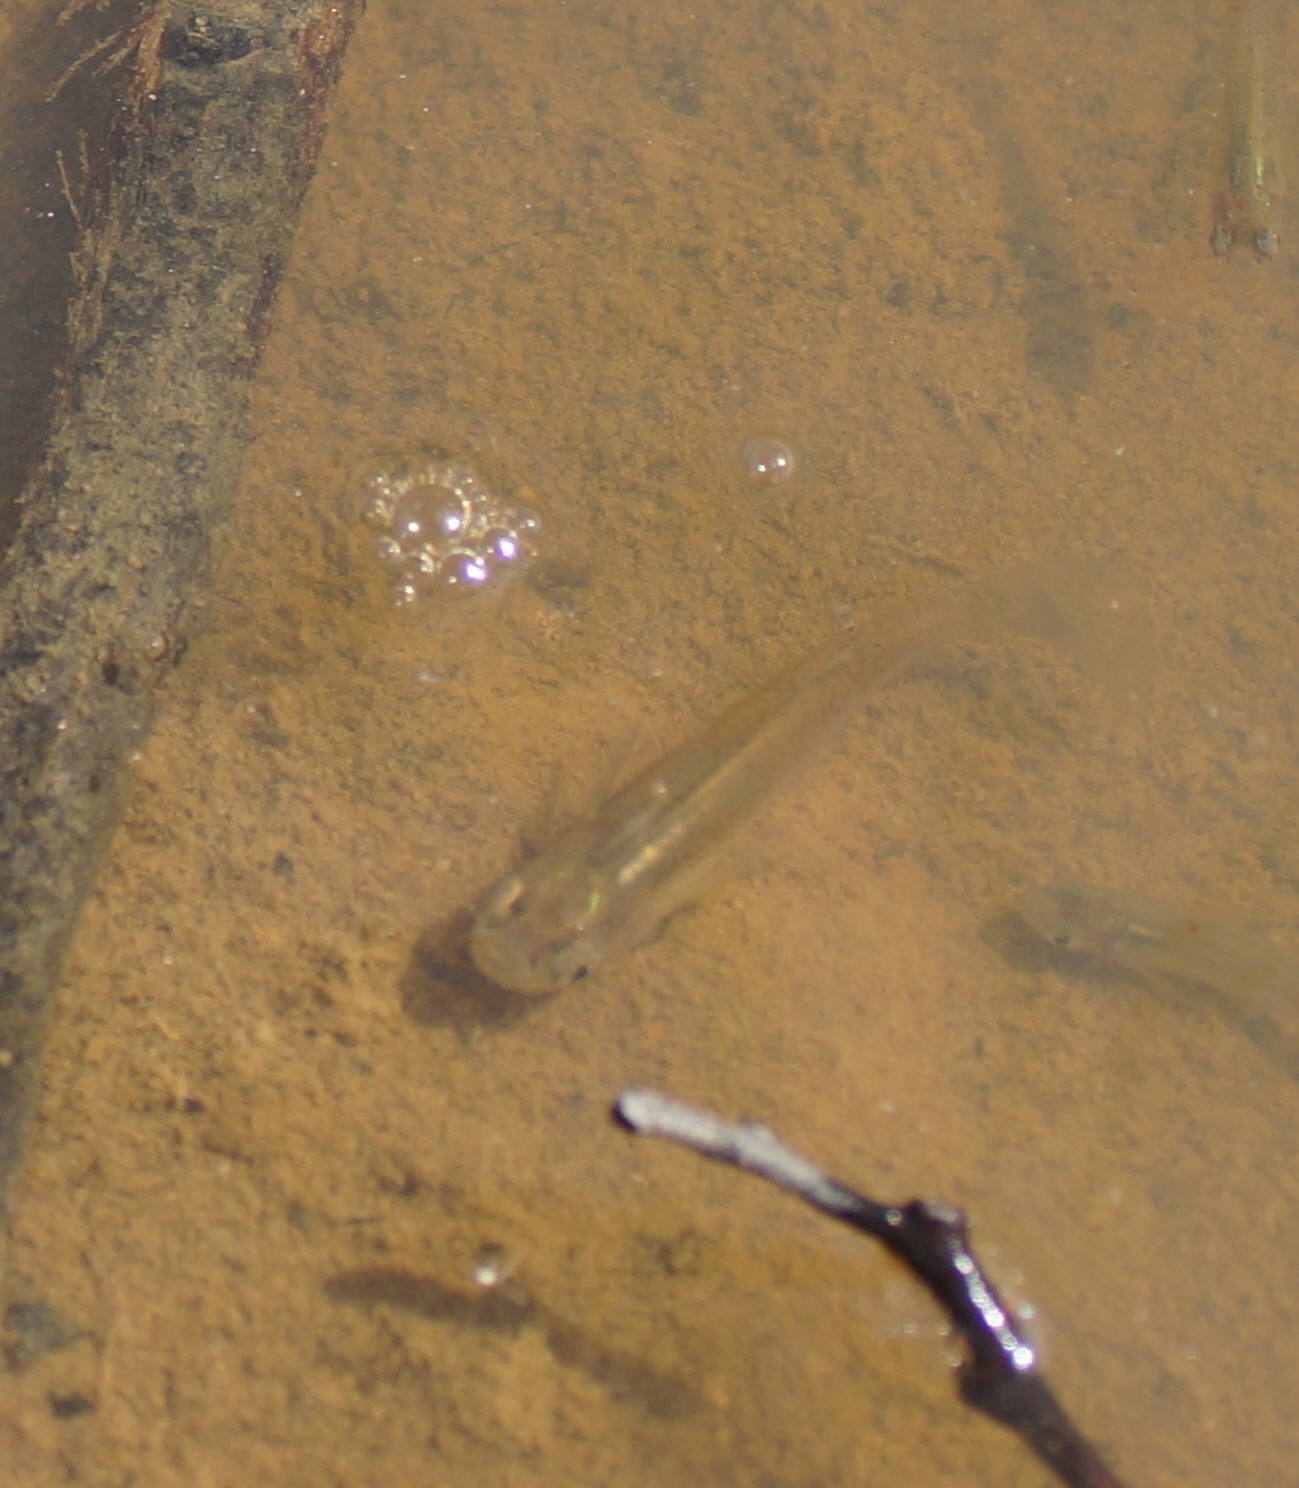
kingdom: Animalia
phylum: Chordata
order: Cyprinodontiformes
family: Poeciliidae
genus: Gambusia
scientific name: Gambusia
